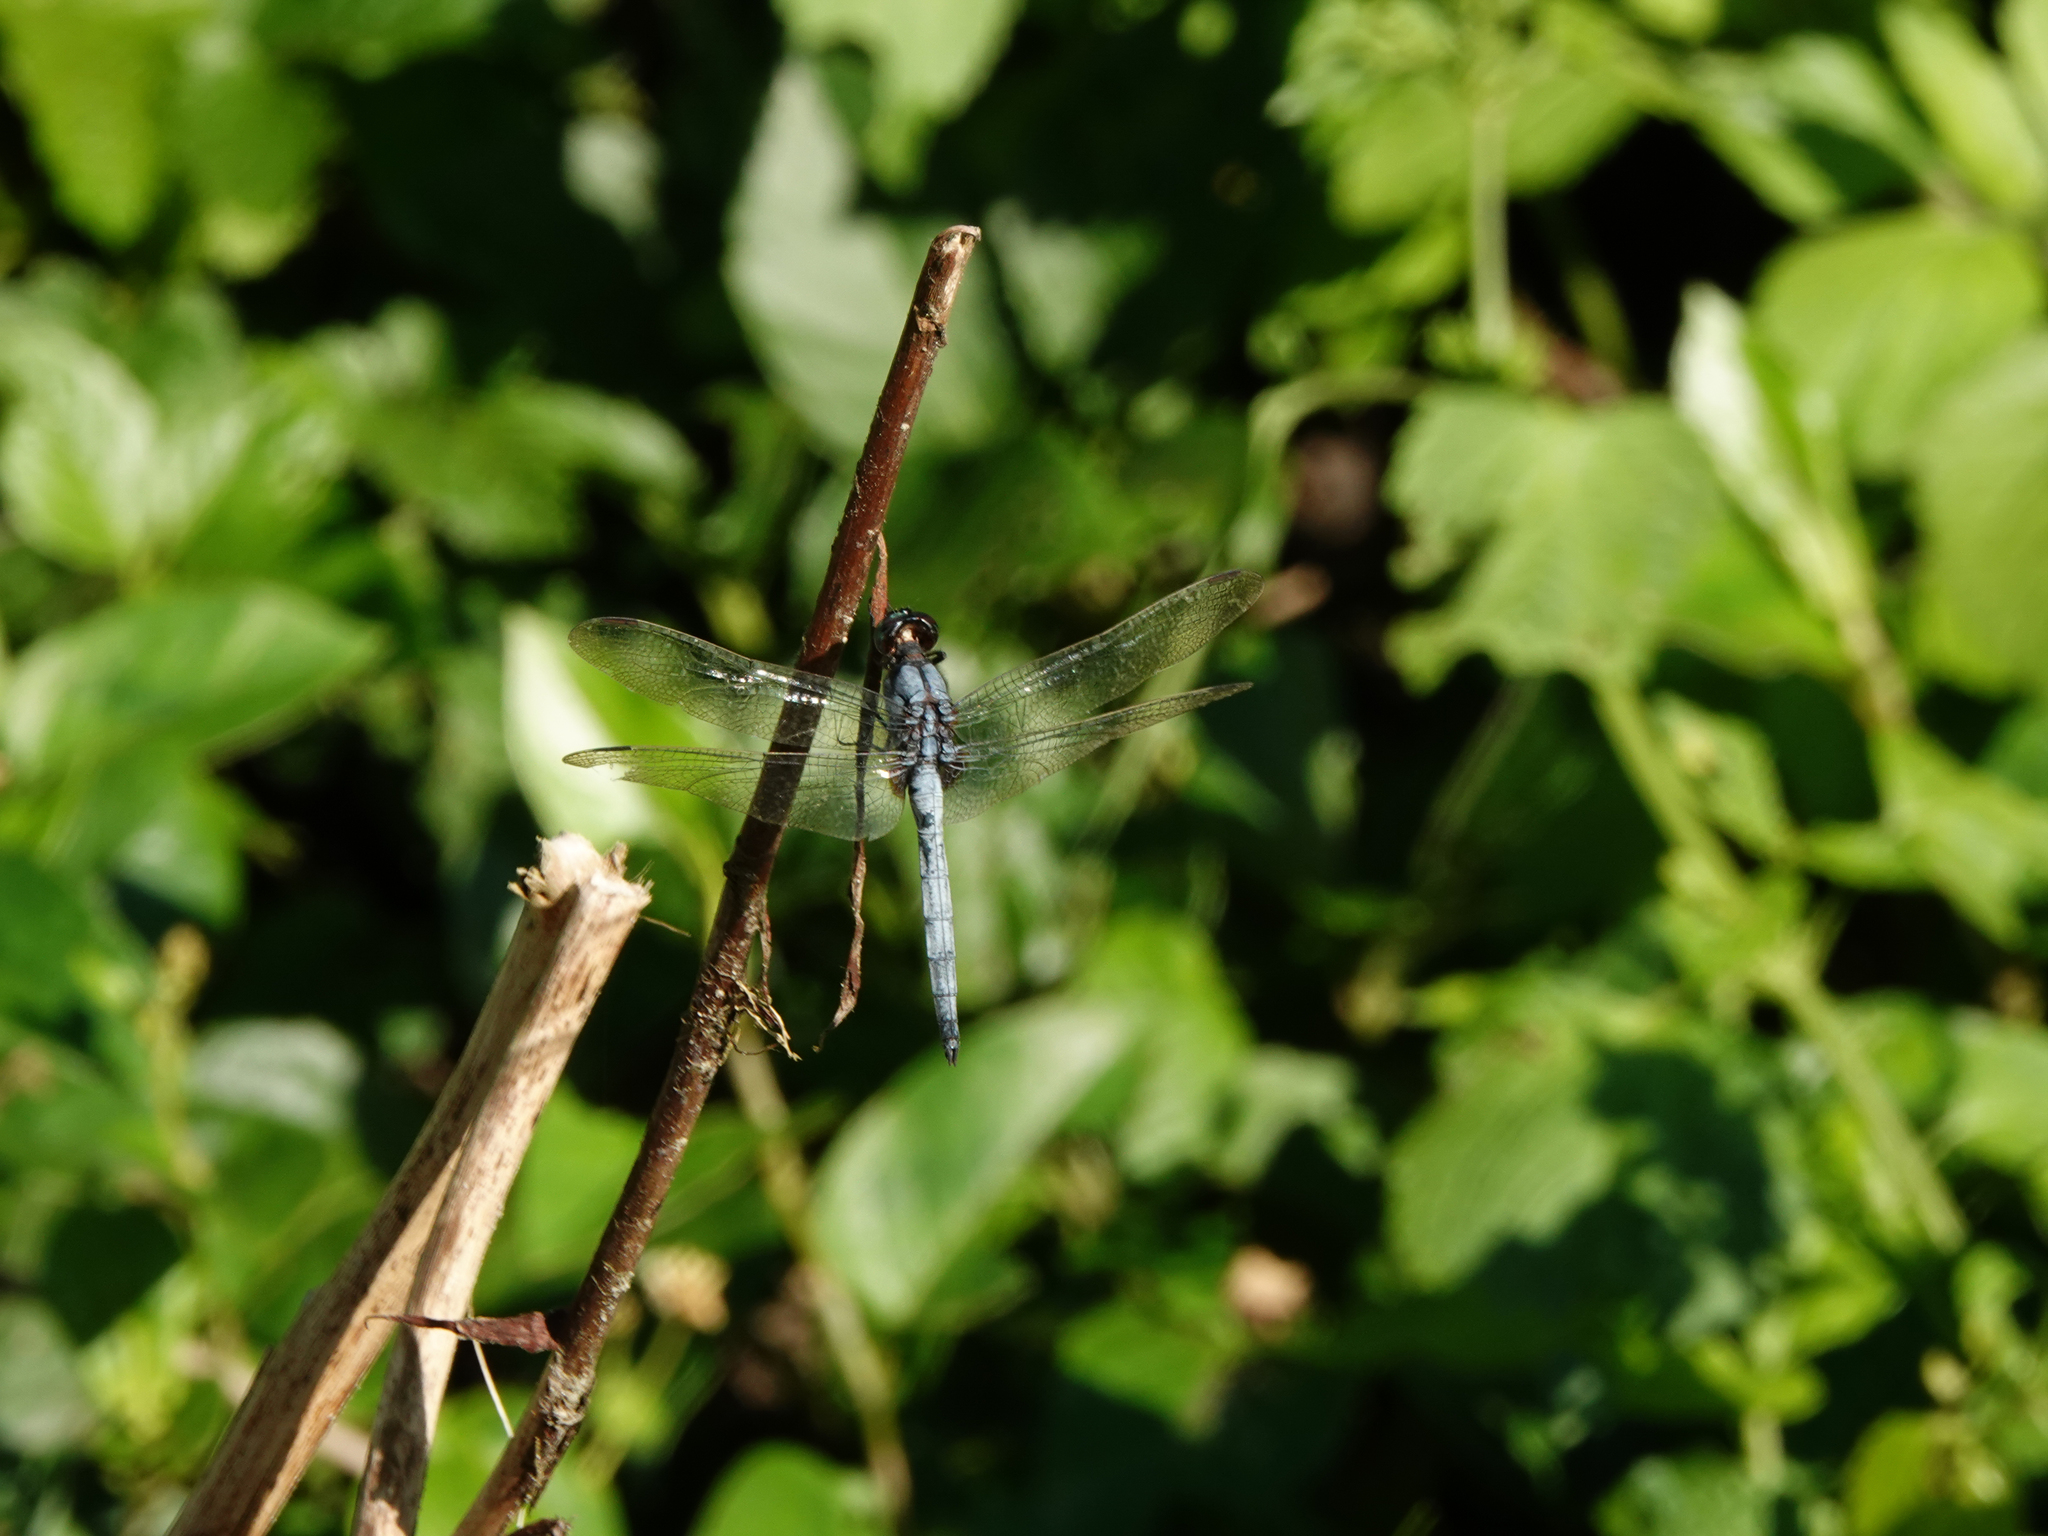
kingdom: Animalia
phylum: Arthropoda
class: Insecta
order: Odonata
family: Libellulidae
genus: Orthetrum
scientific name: Orthetrum glaucum
